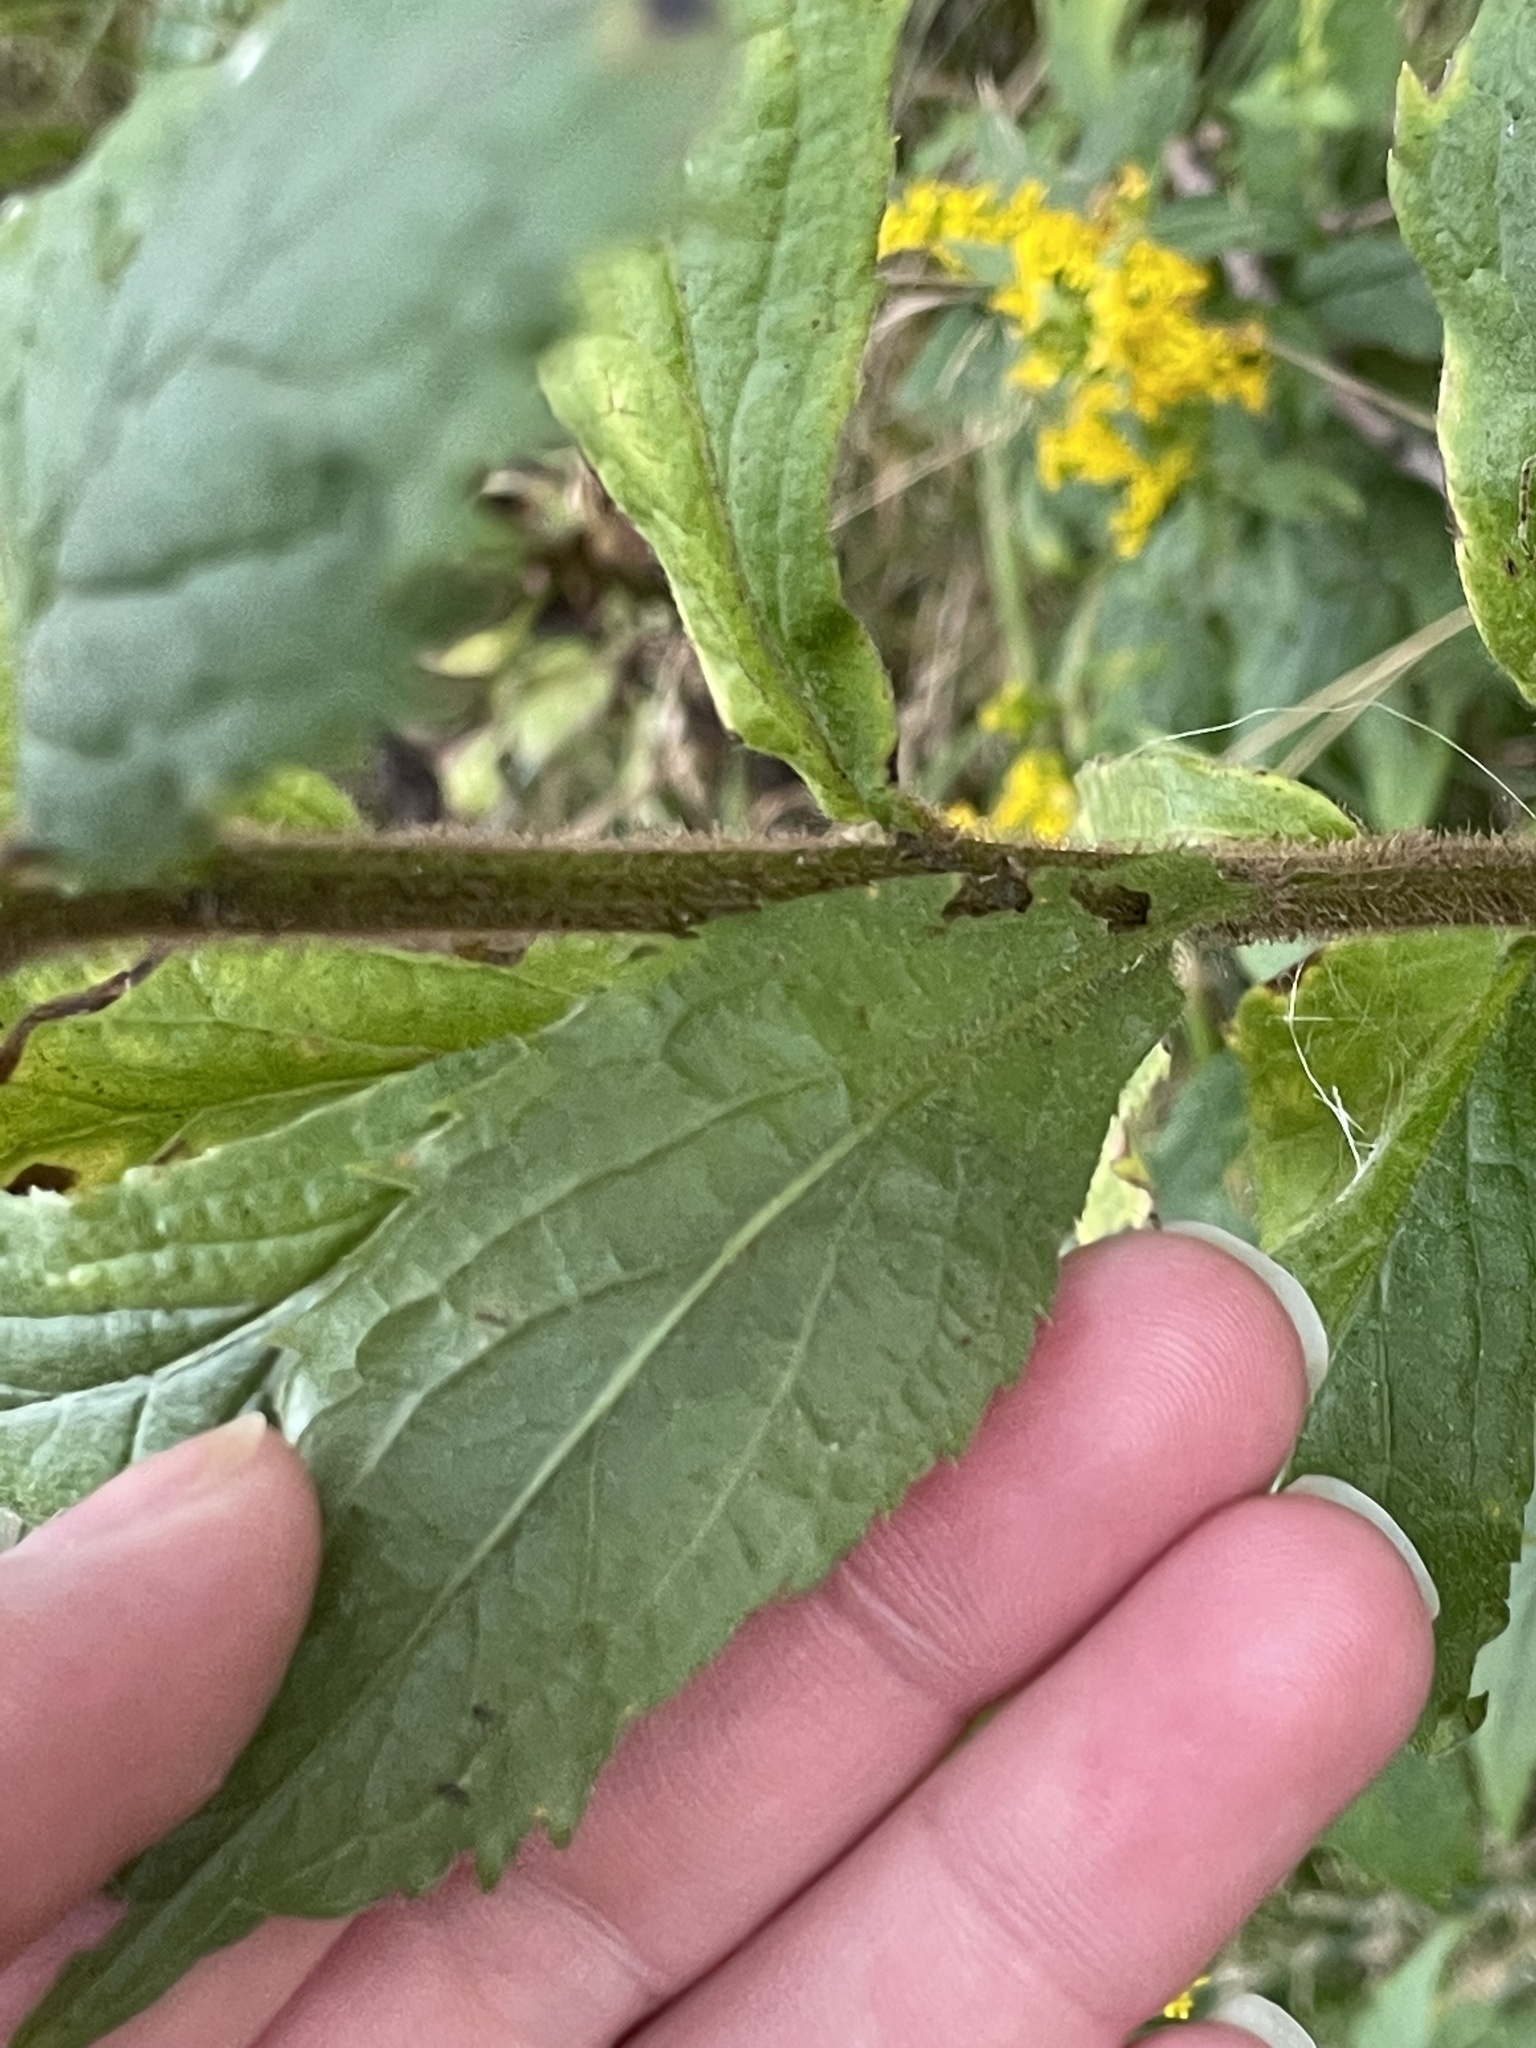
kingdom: Plantae
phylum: Tracheophyta
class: Magnoliopsida
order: Asterales
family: Asteraceae
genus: Solidago
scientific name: Solidago rugosa
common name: Rough-stemmed goldenrod
